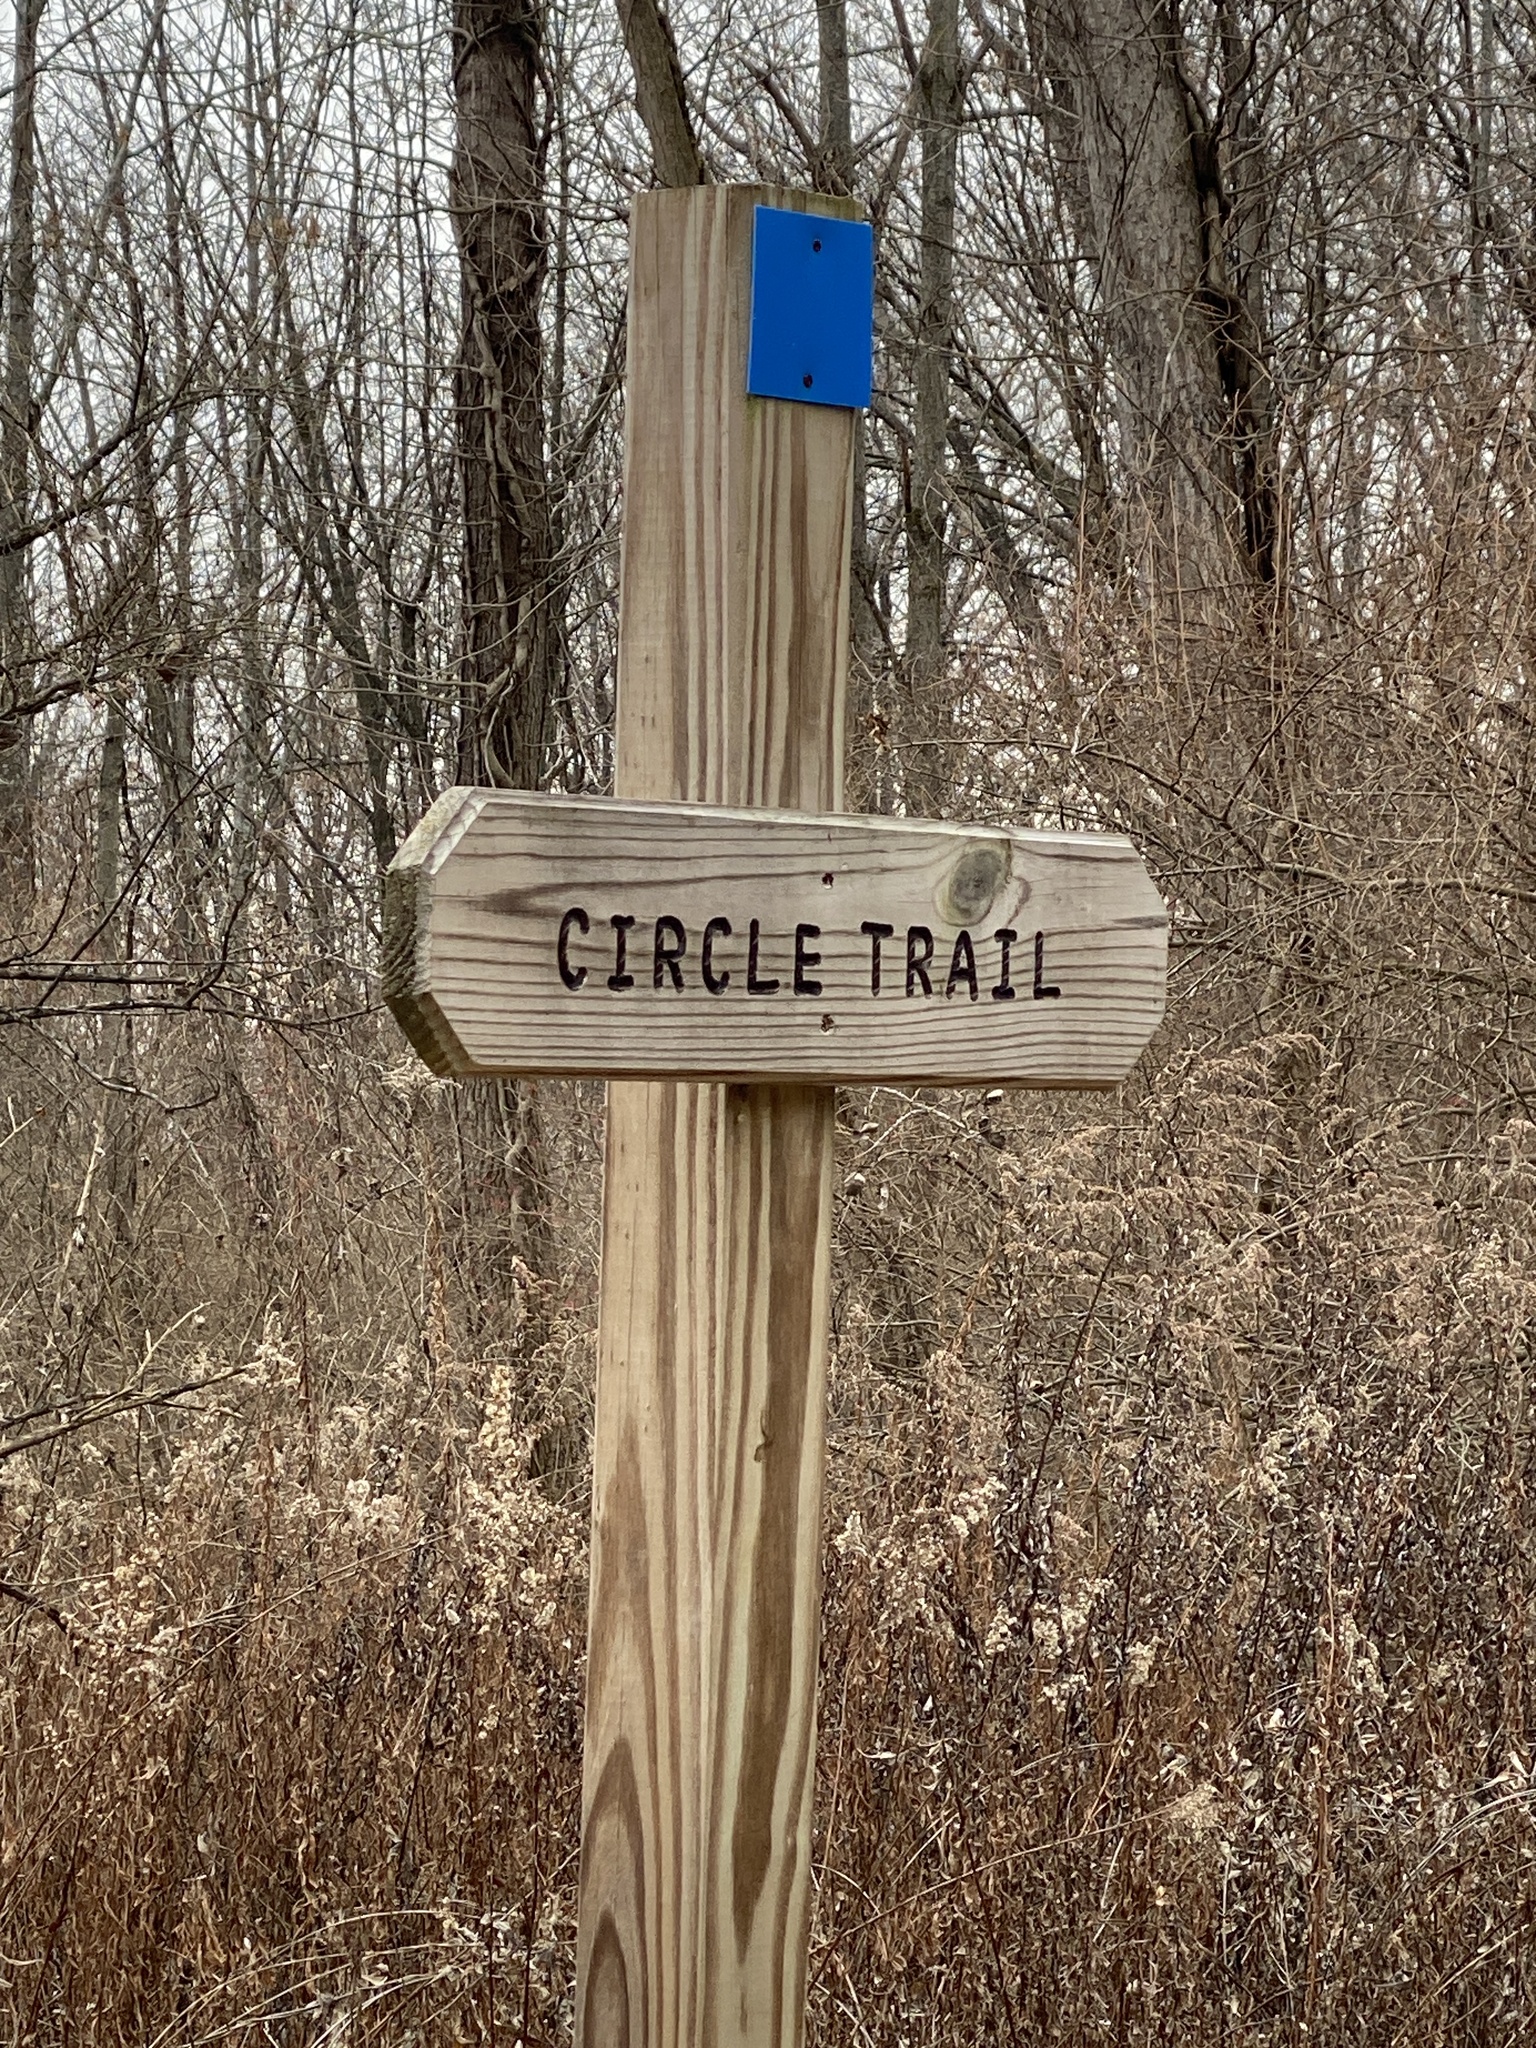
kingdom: Plantae
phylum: Tracheophyta
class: Magnoliopsida
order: Malpighiales
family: Salicaceae
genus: Populus
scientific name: Populus deltoides
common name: Eastern cottonwood
